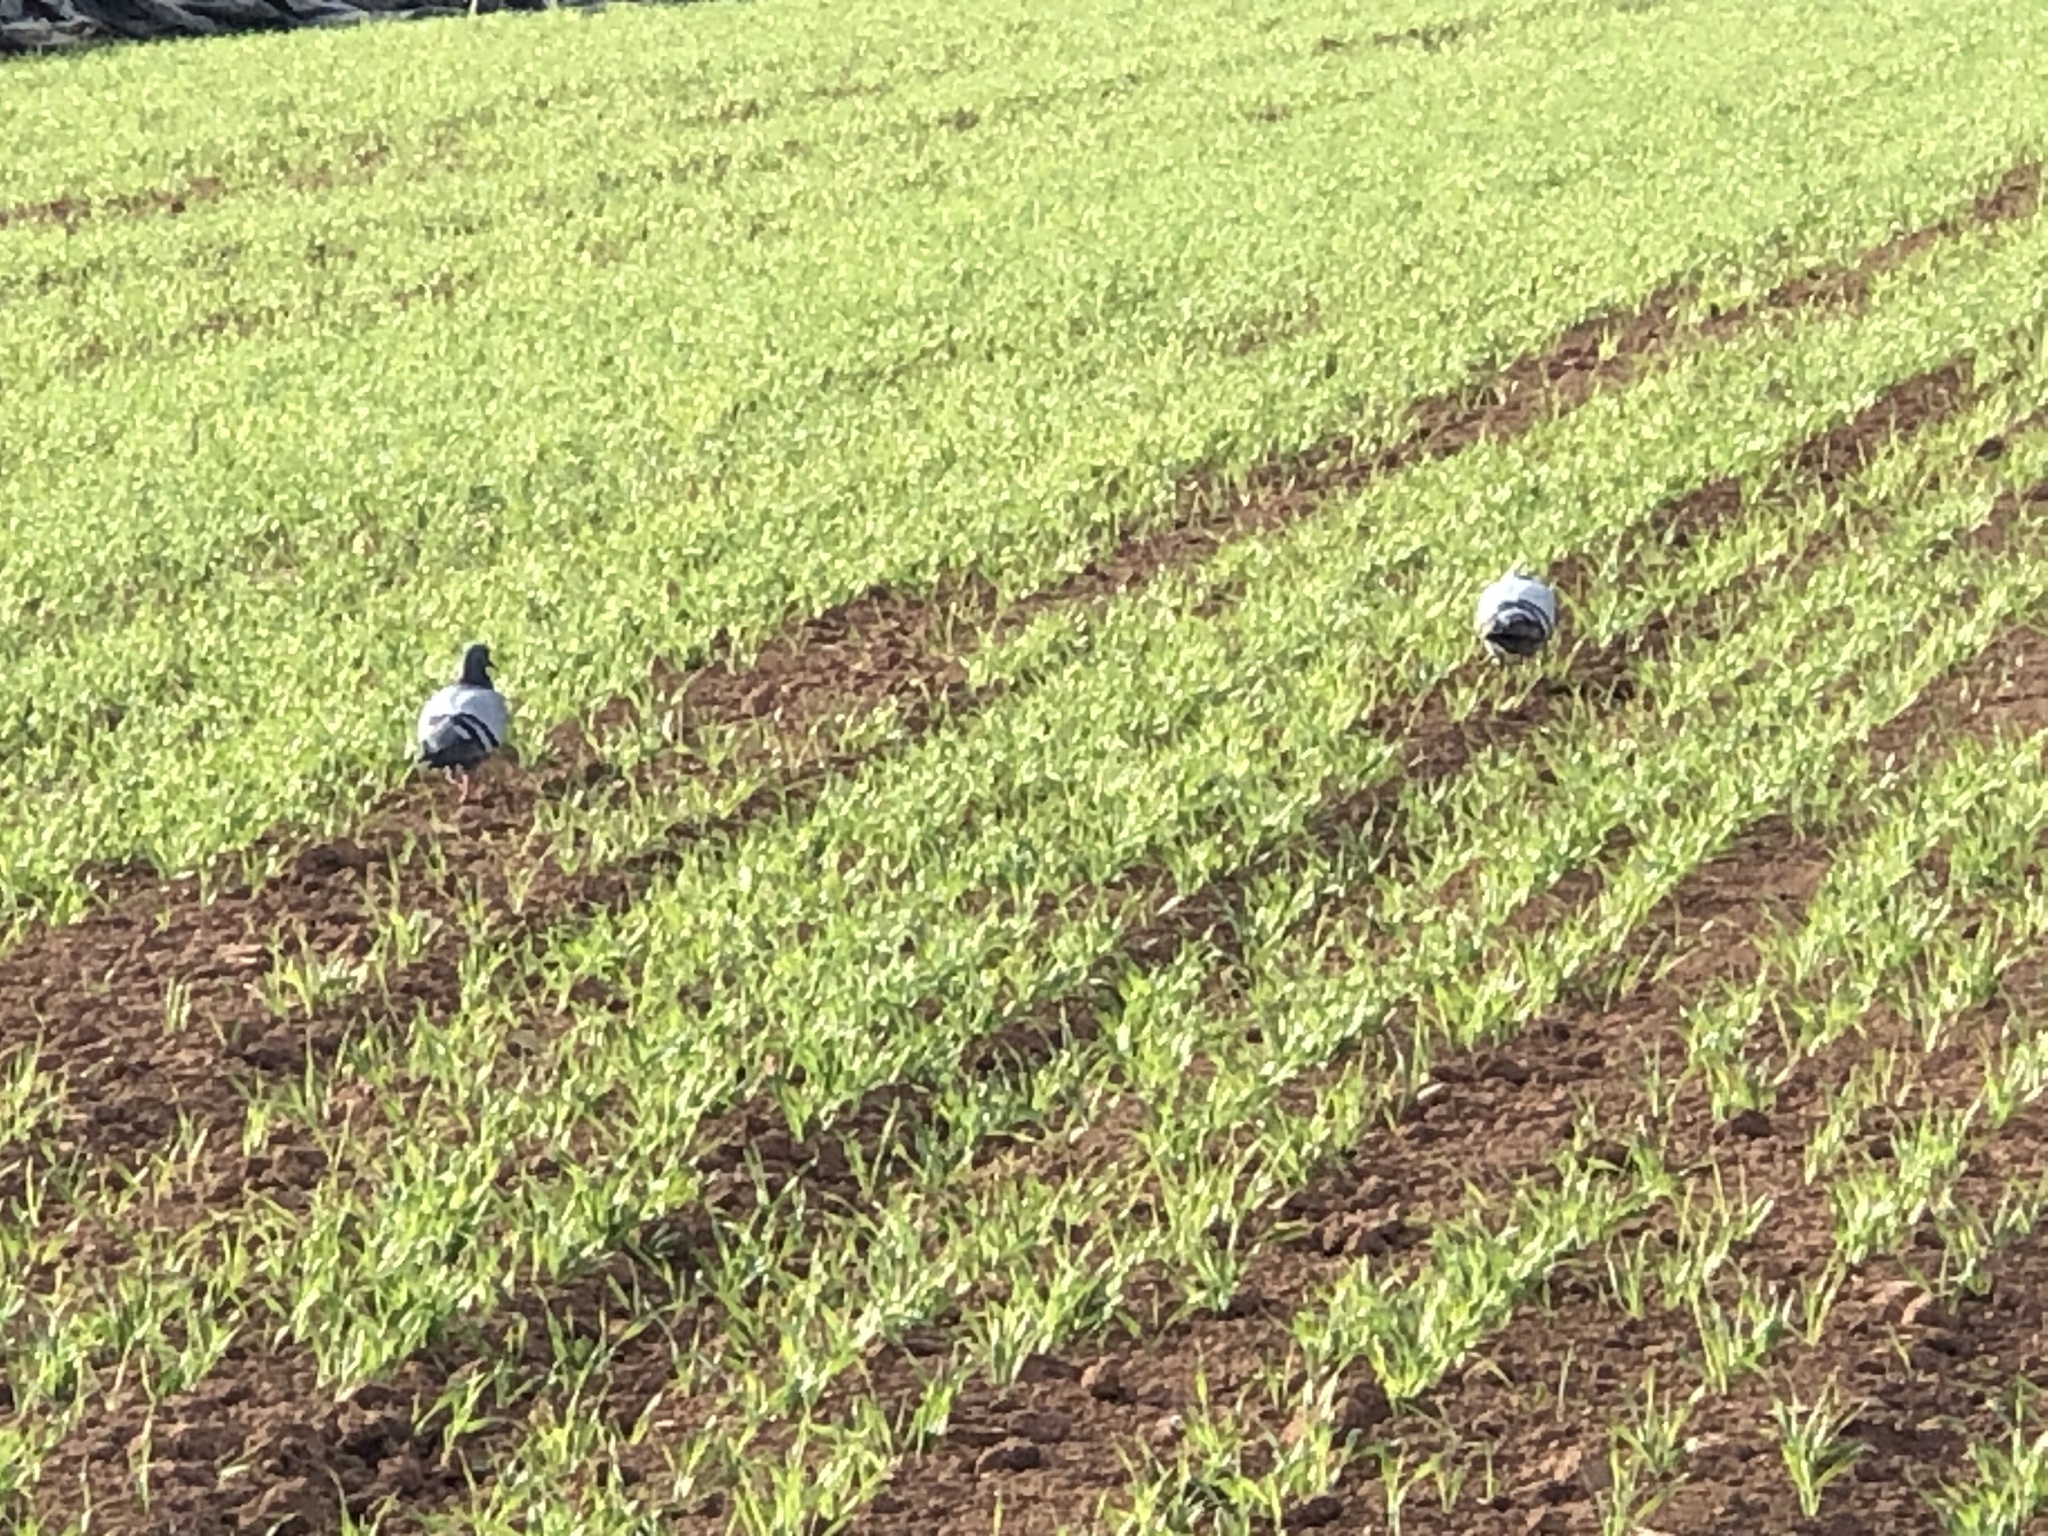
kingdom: Animalia
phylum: Chordata
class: Aves
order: Columbiformes
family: Columbidae
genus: Columba
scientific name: Columba livia
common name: Rock pigeon
